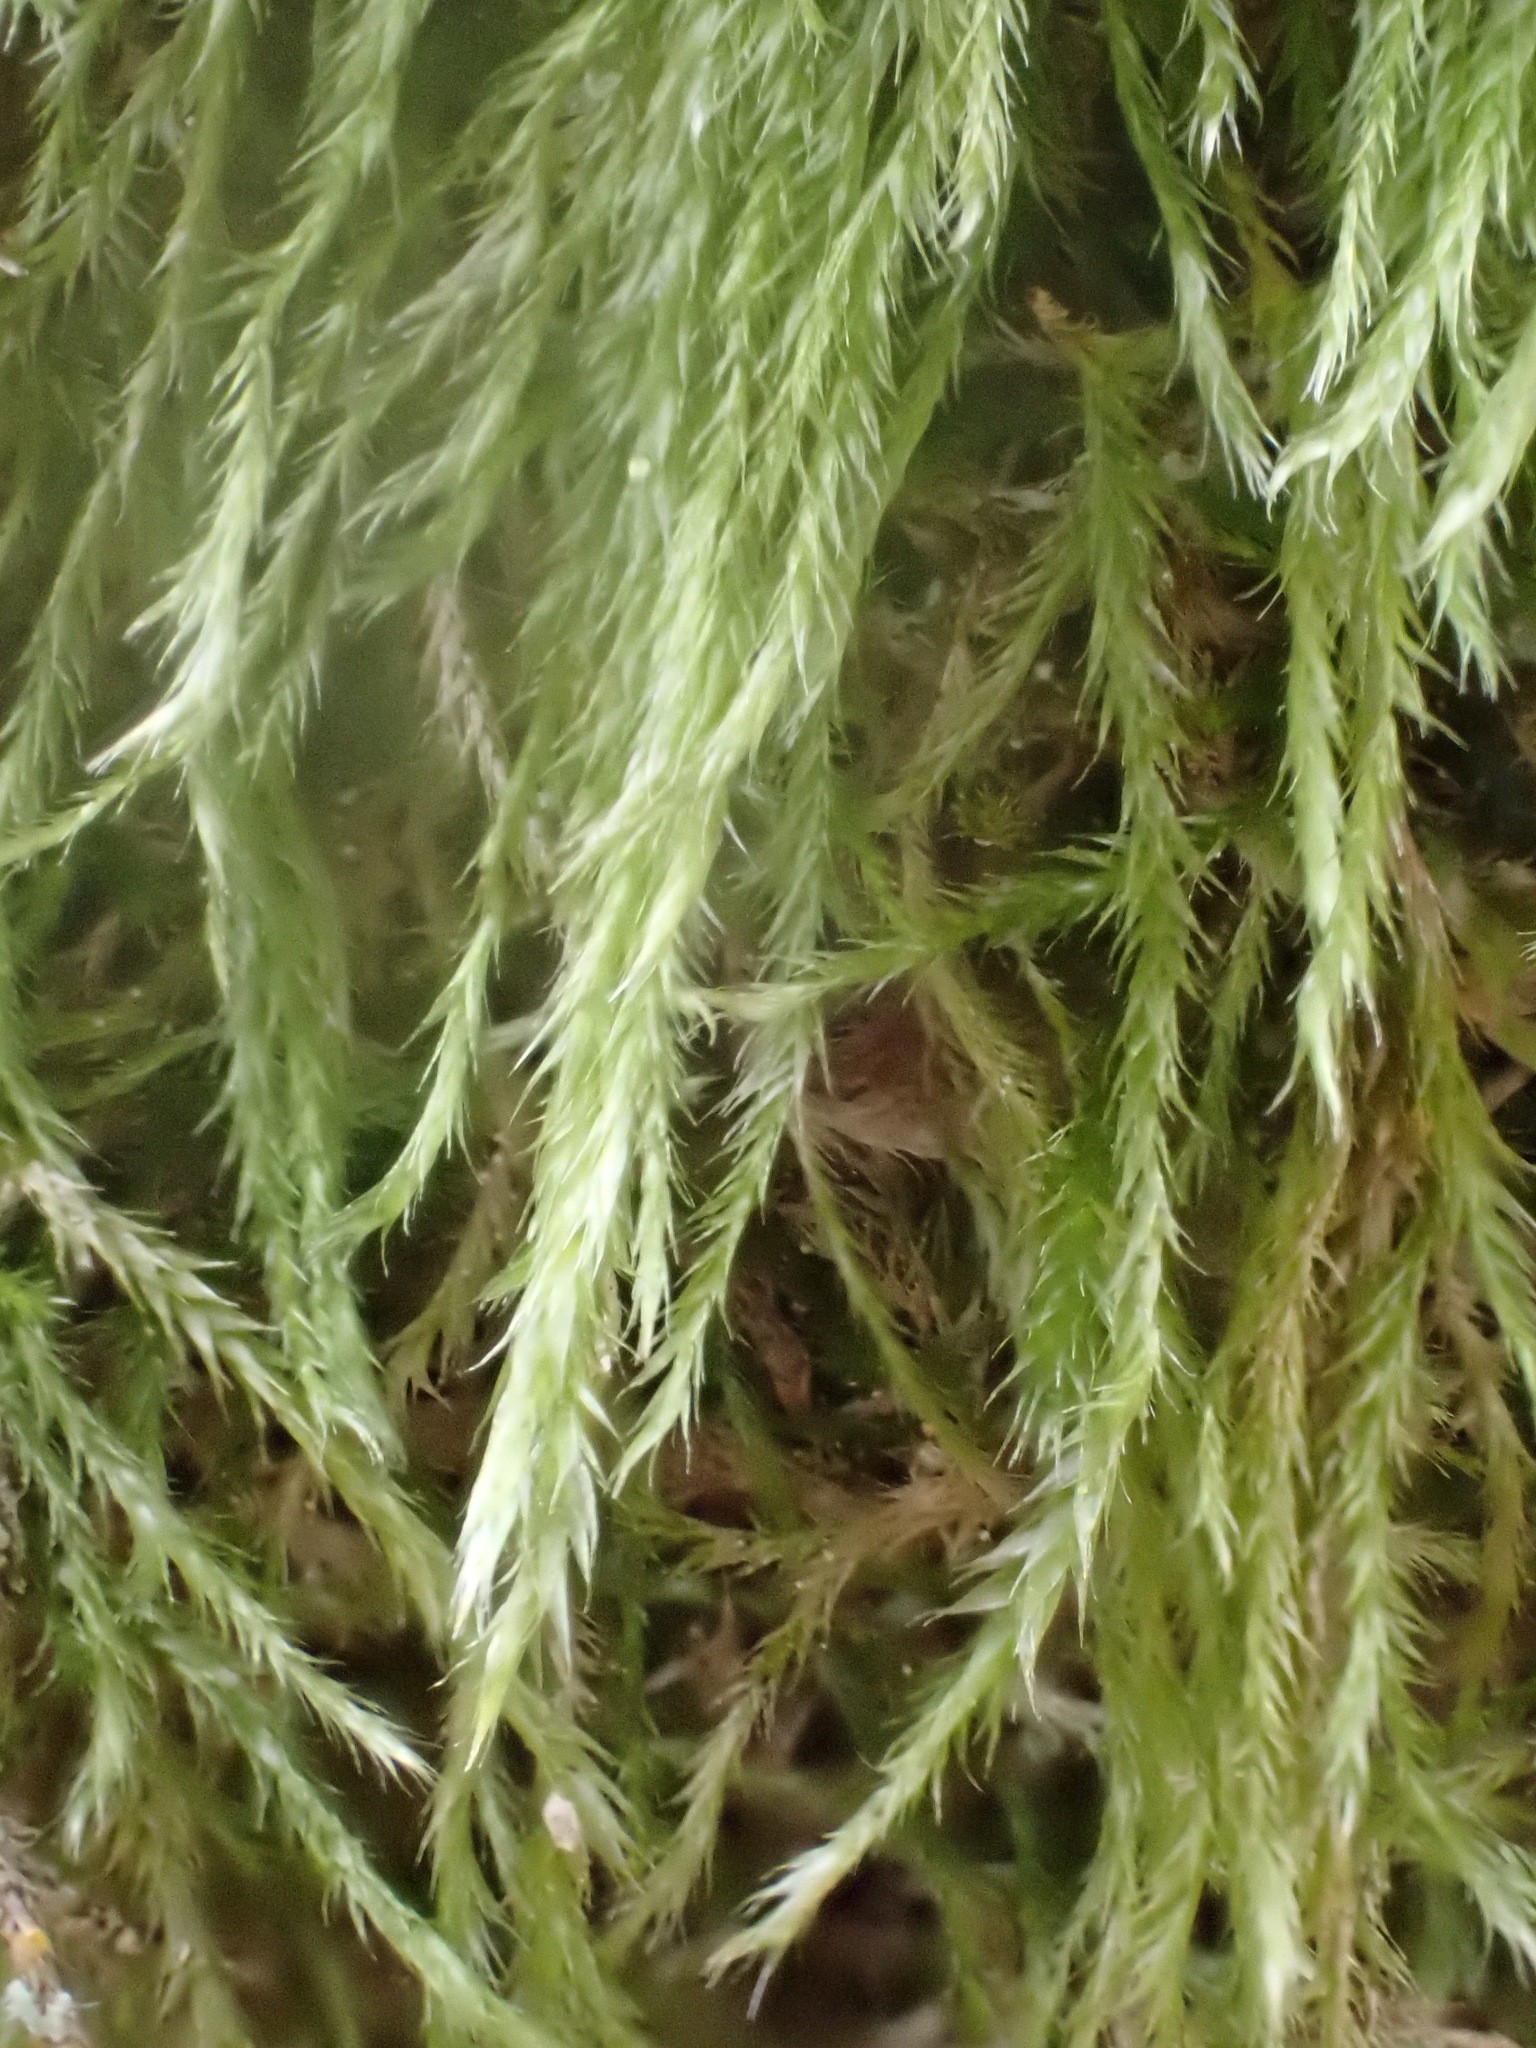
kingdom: Plantae
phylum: Bryophyta
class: Bryopsida
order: Hypnales
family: Hypnaceae
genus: Hypnum
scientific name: Hypnum andoi
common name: Ando's plait moss
